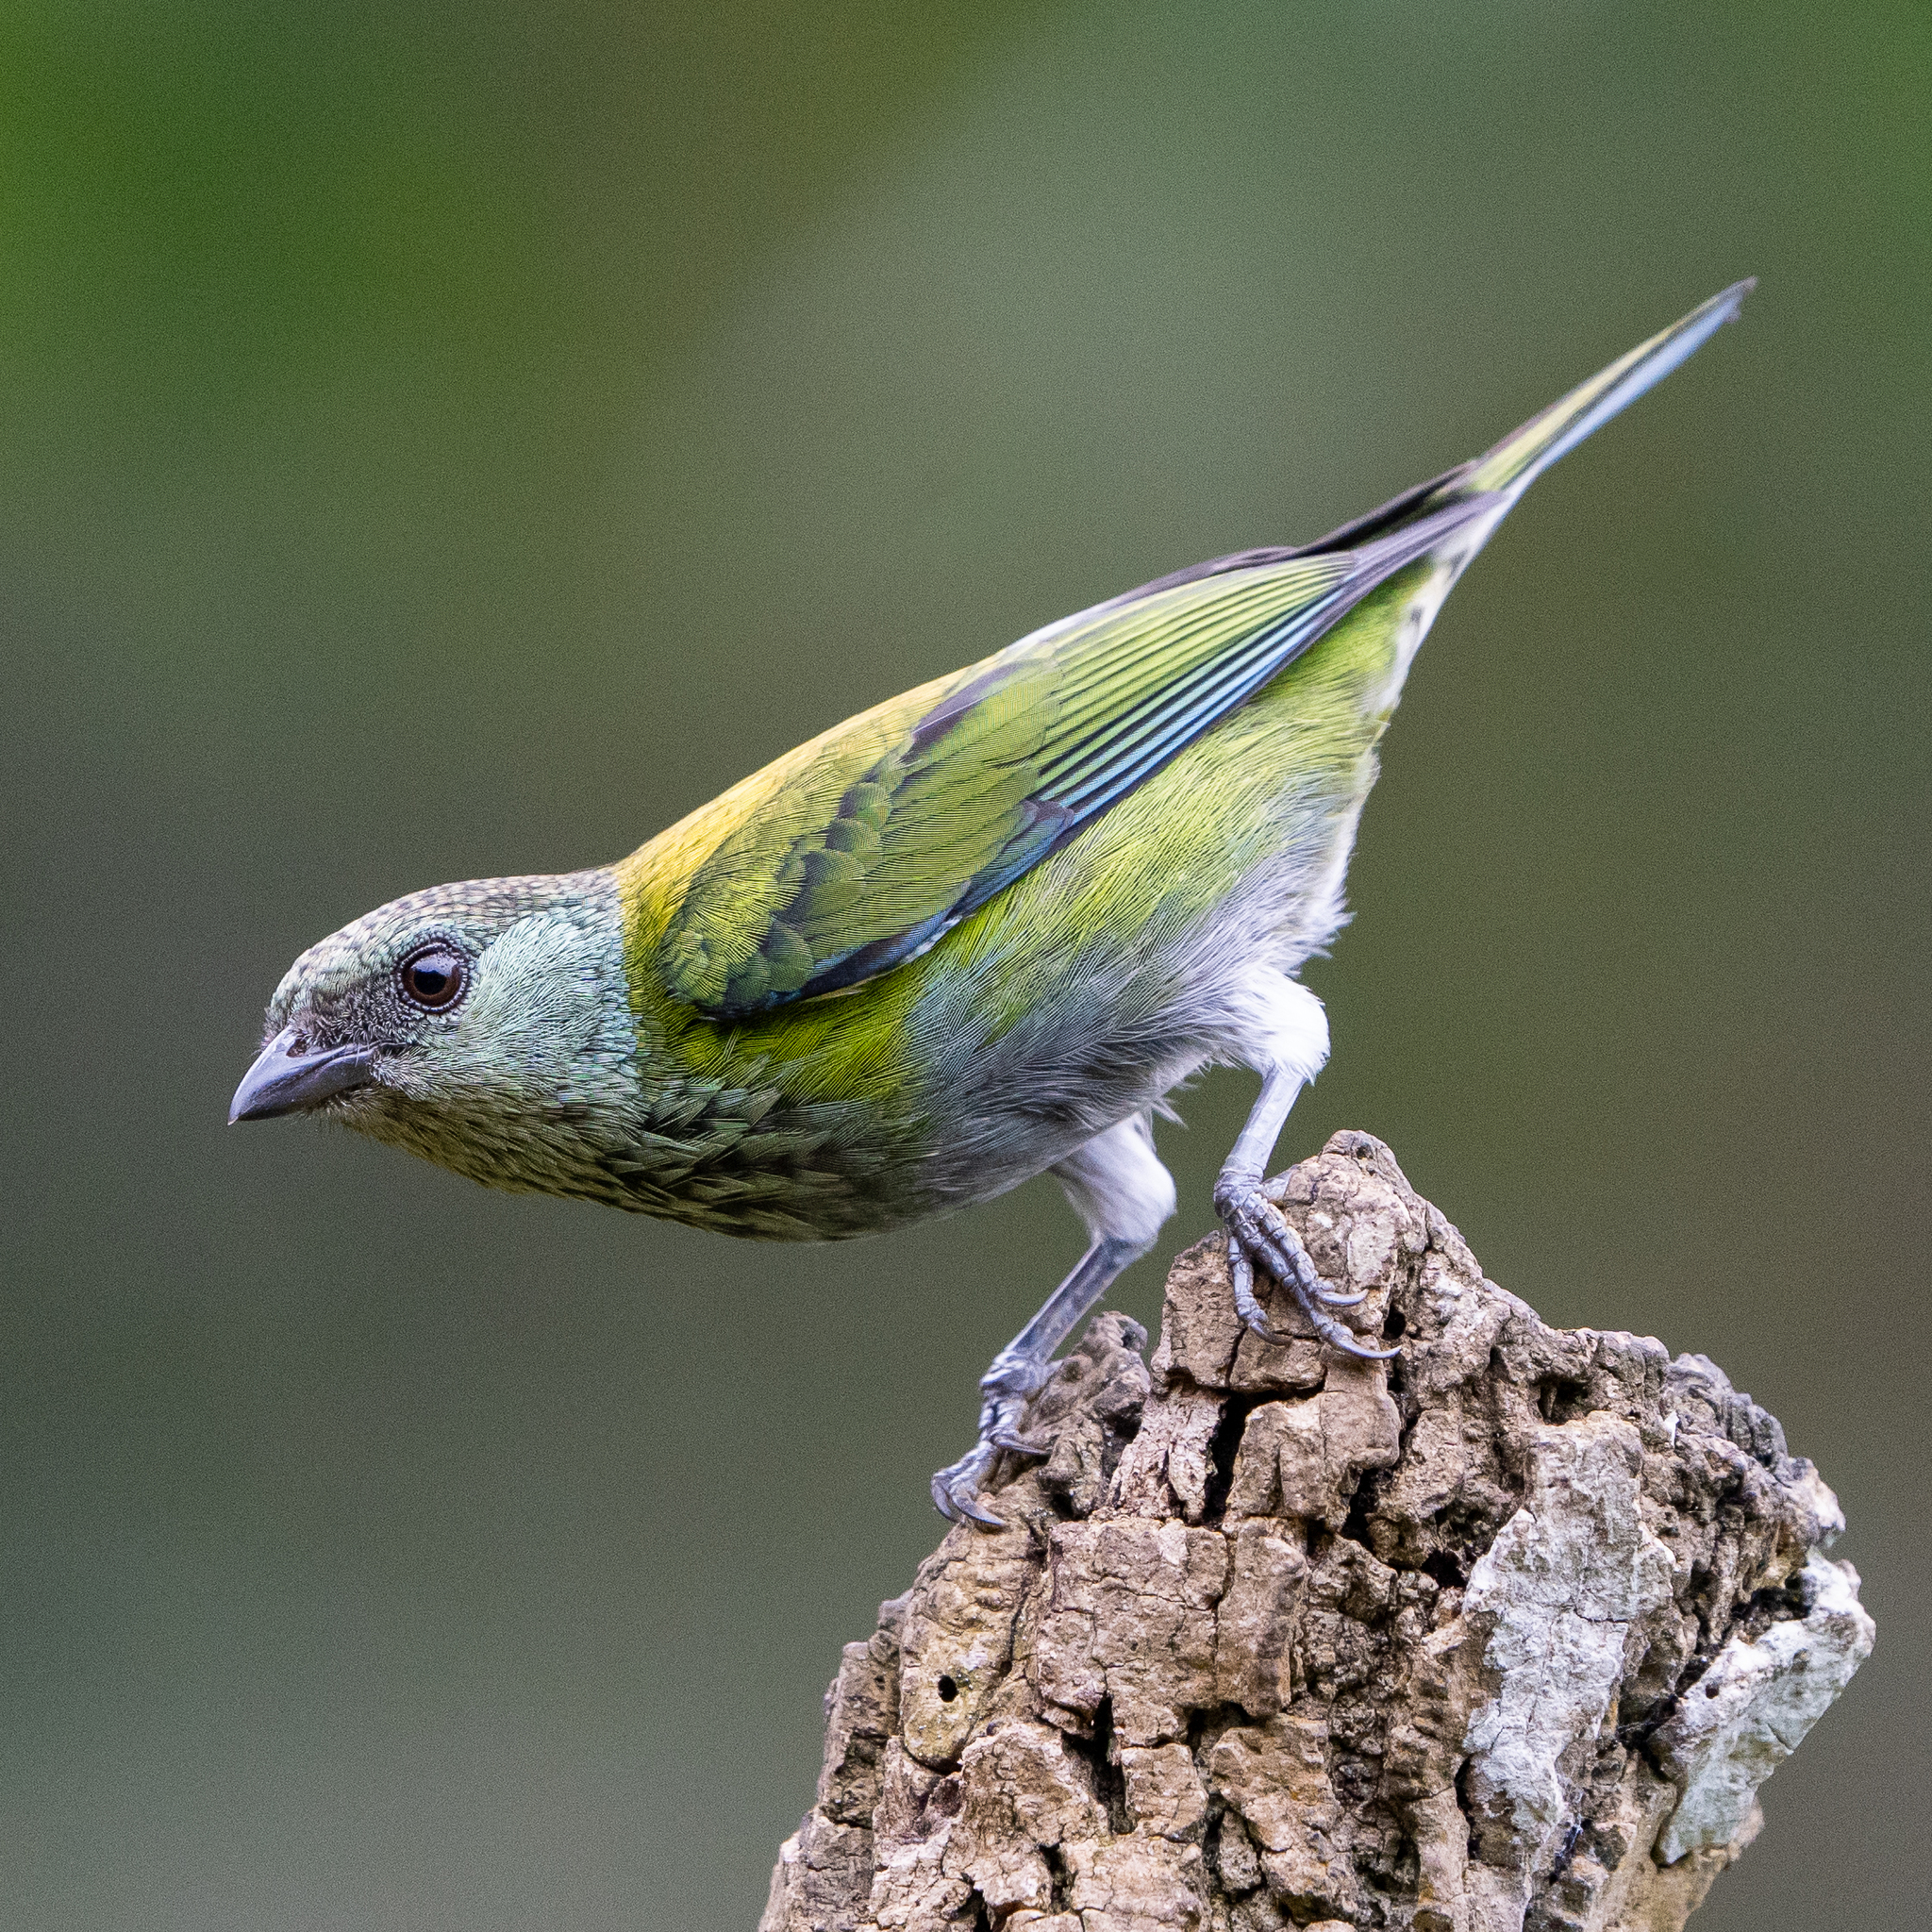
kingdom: Animalia
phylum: Chordata
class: Aves
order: Passeriformes
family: Thraupidae
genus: Stilpnia
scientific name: Stilpnia heinei
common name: Black-capped tanager
